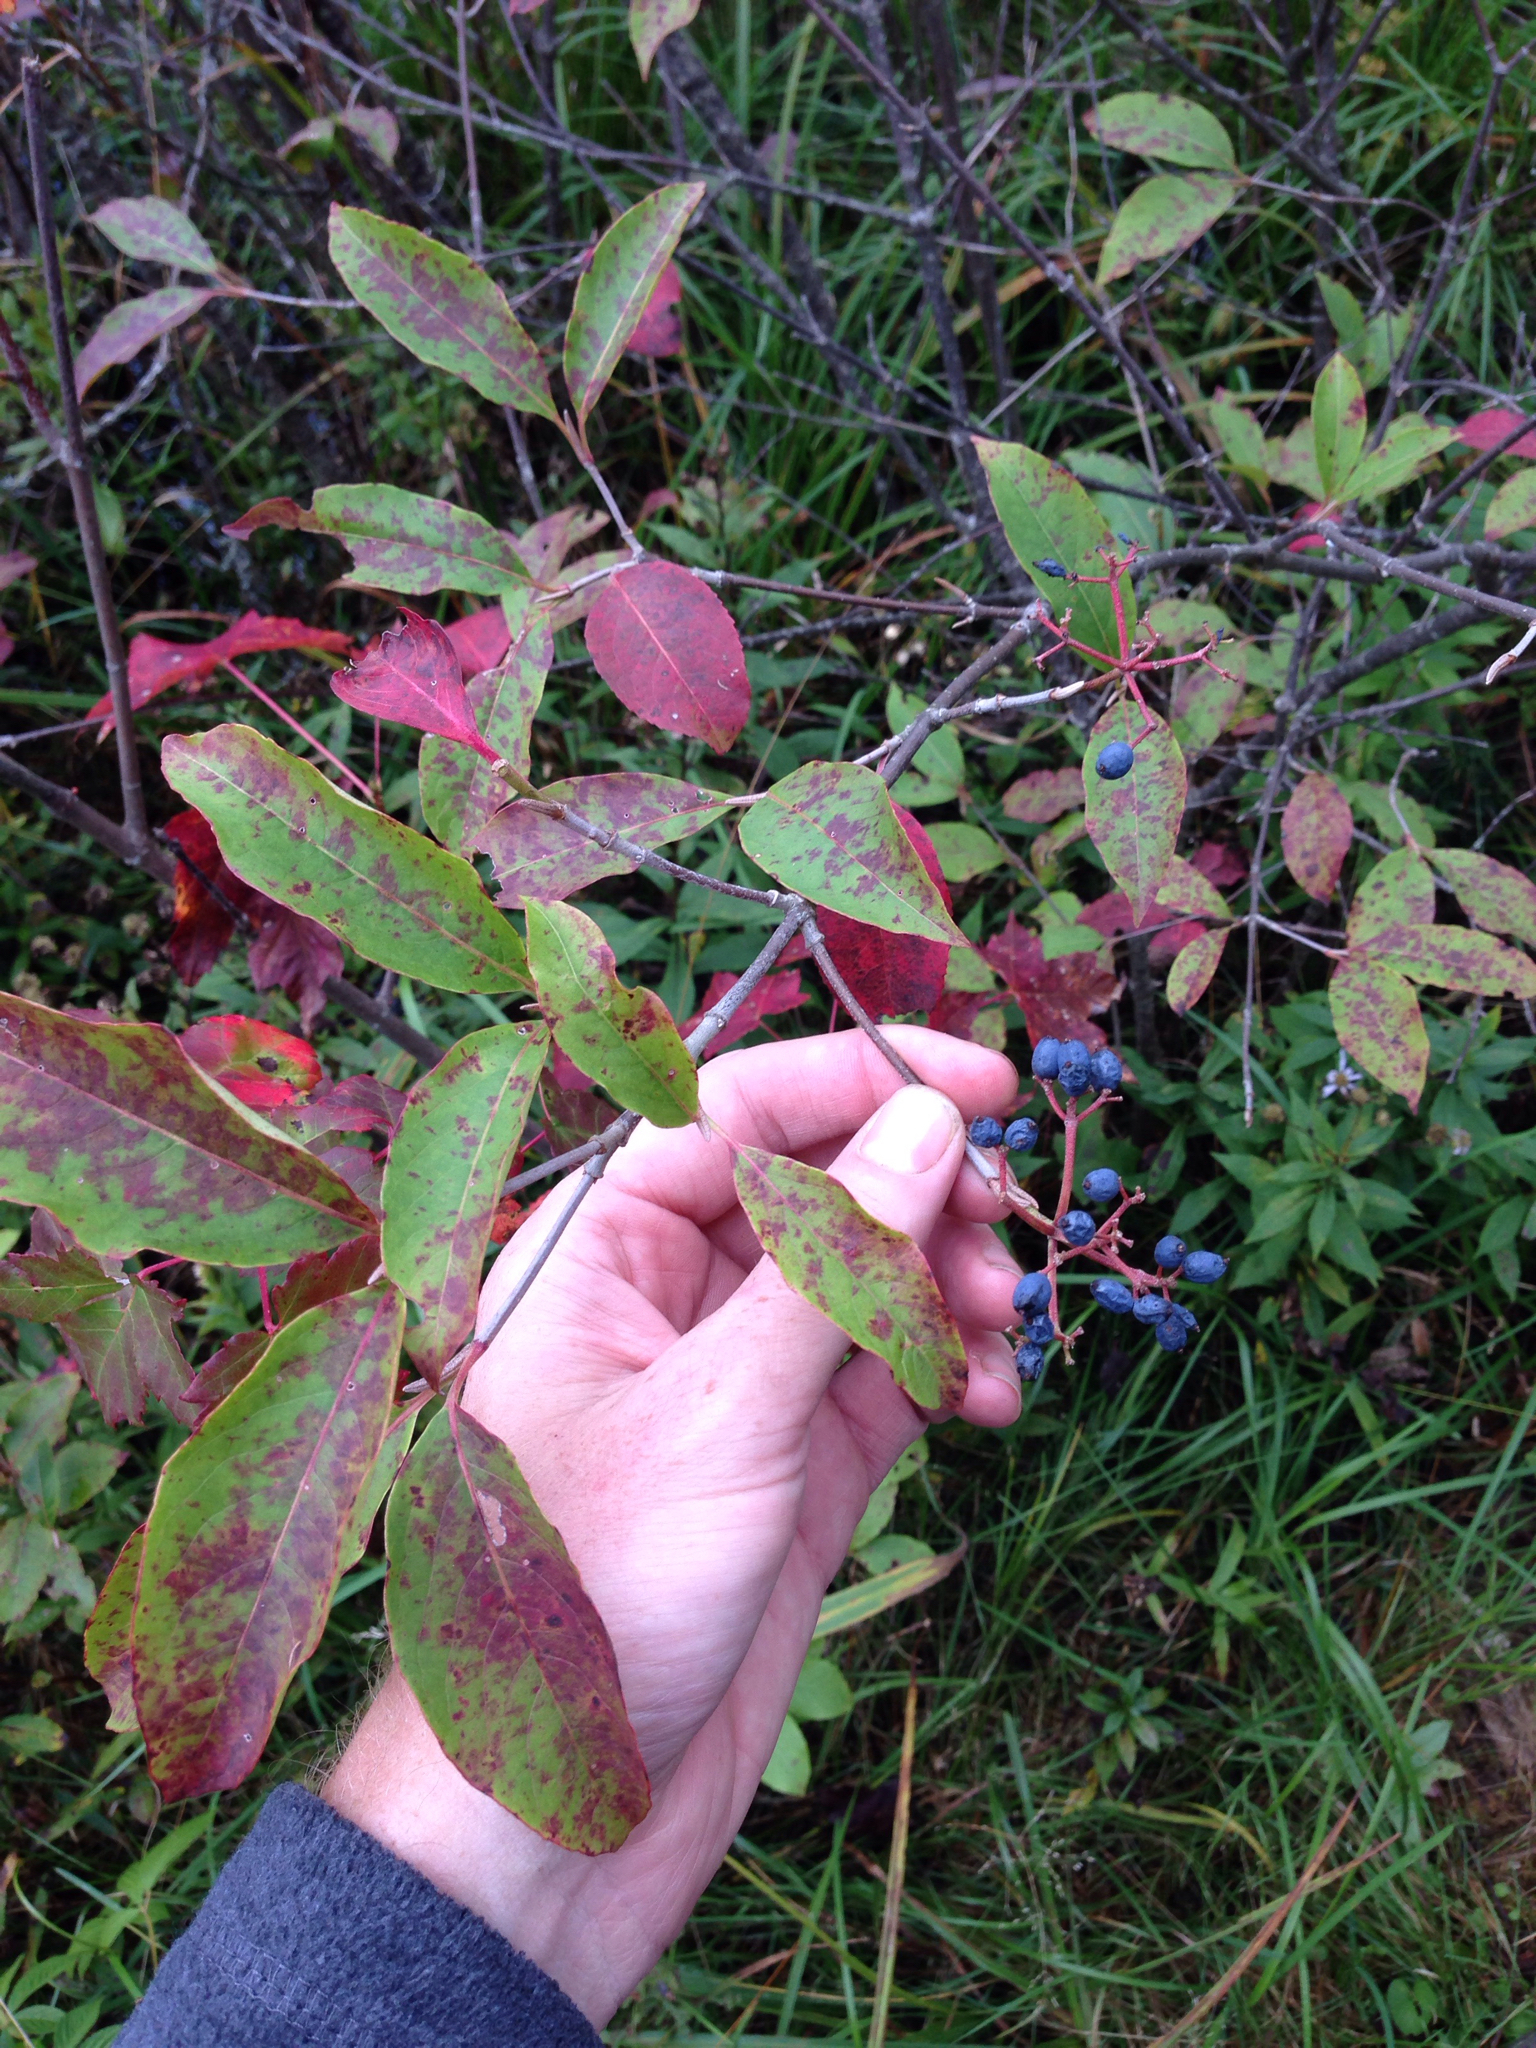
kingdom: Plantae
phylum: Tracheophyta
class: Magnoliopsida
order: Dipsacales
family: Viburnaceae
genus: Viburnum
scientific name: Viburnum cassinoides
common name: Swamp haw
